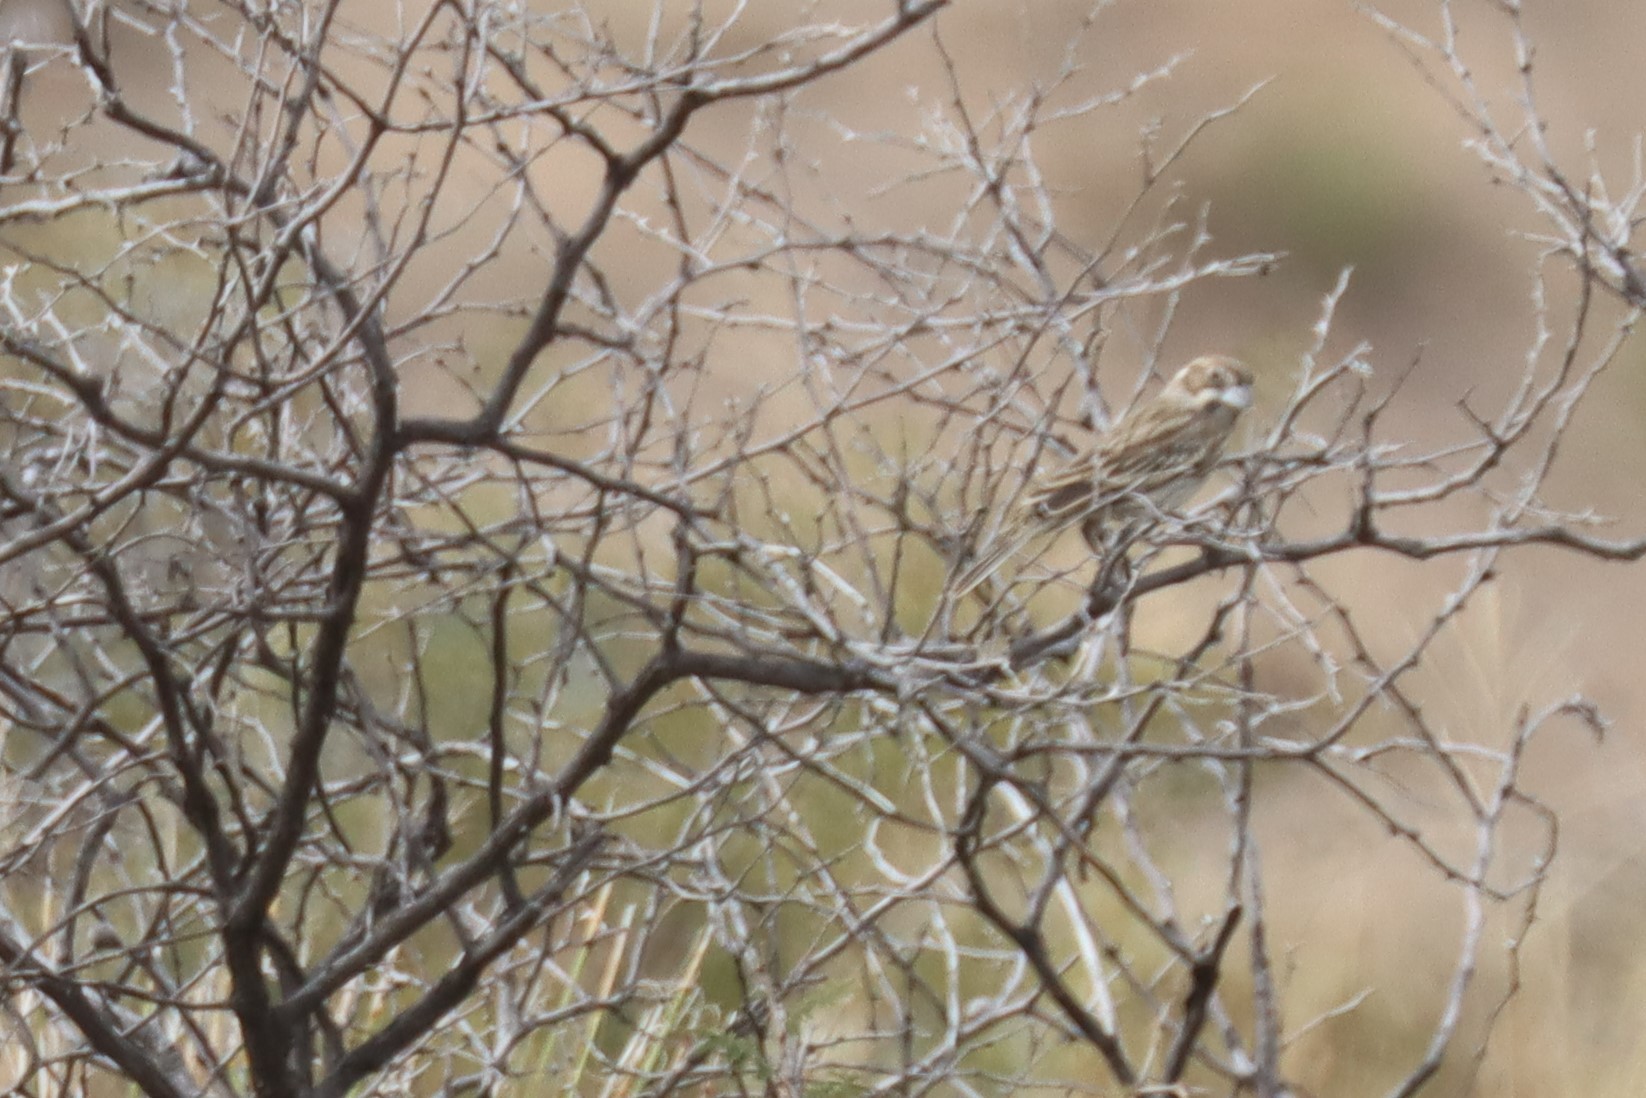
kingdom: Animalia
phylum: Chordata
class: Aves
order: Passeriformes
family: Passerellidae
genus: Calamospiza
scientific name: Calamospiza melanocorys
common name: Lark bunting
